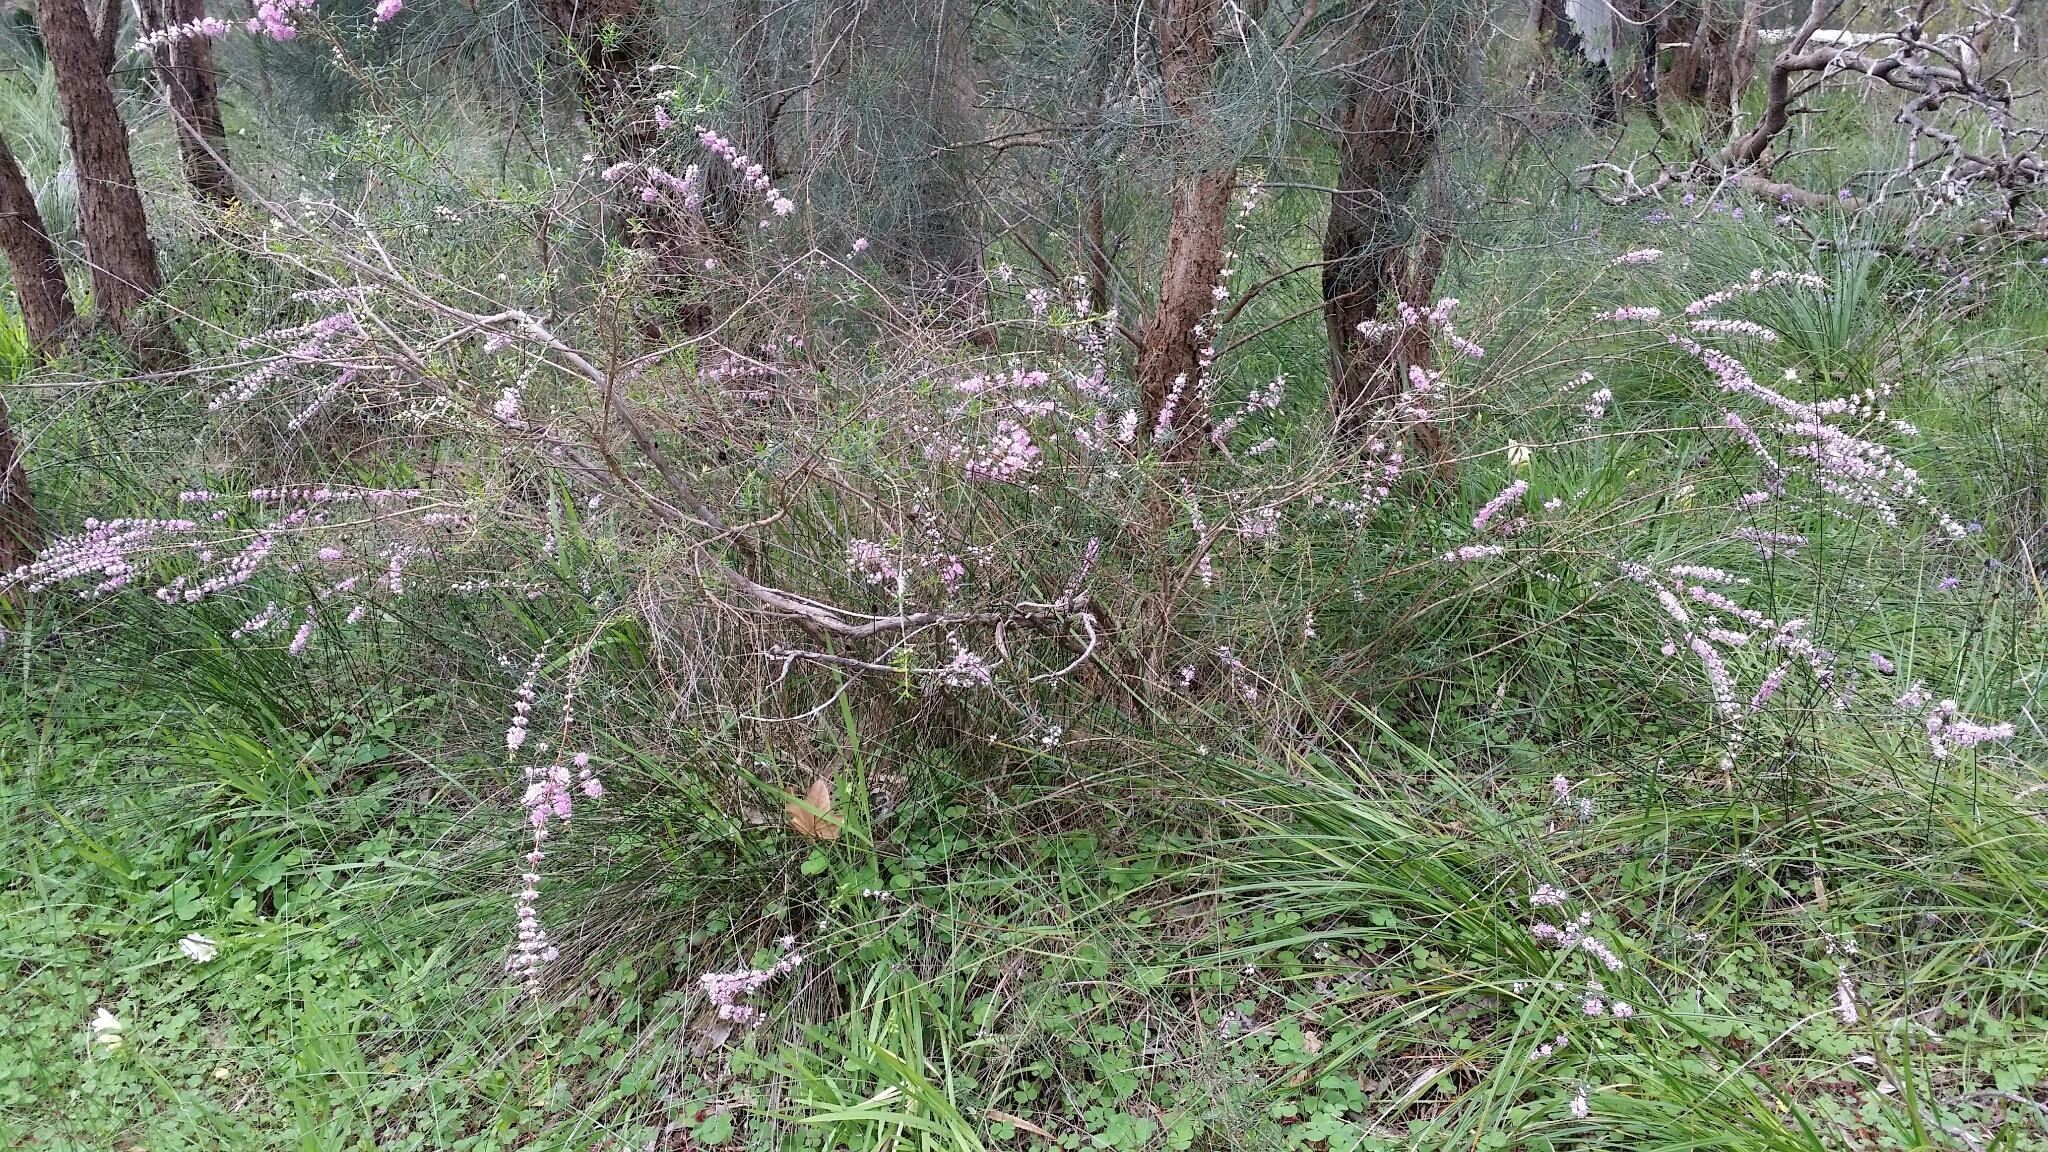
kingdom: Plantae
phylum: Tracheophyta
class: Magnoliopsida
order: Myrtales
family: Myrtaceae
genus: Hypocalymma
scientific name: Hypocalymma robustum
